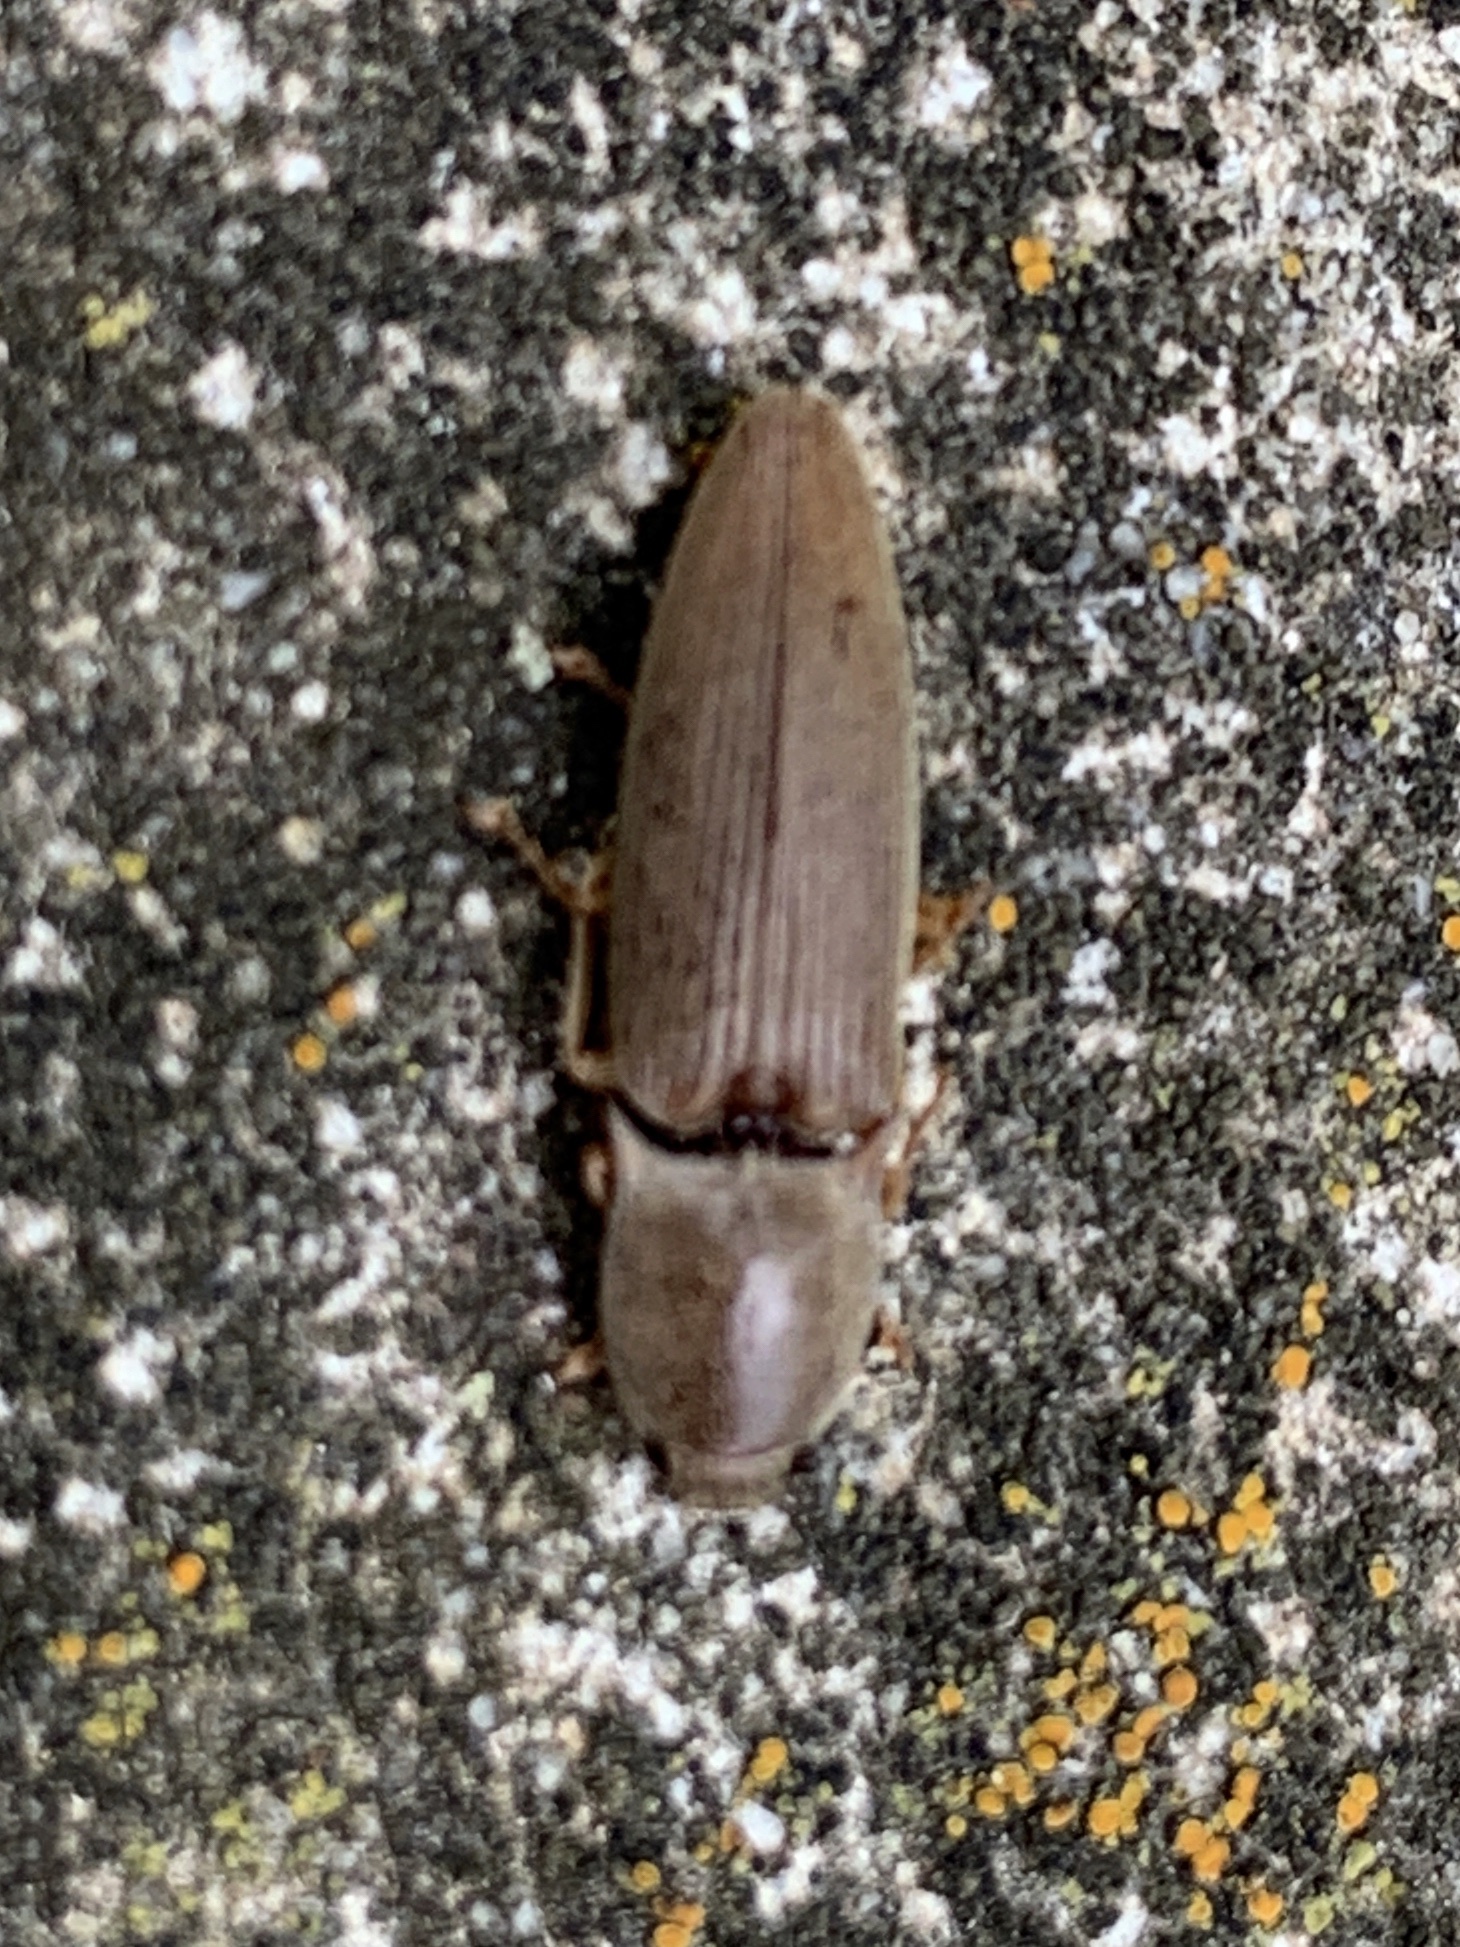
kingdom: Animalia
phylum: Arthropoda
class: Insecta
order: Coleoptera
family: Elateridae
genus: Monocrepidius
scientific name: Monocrepidius lividus
